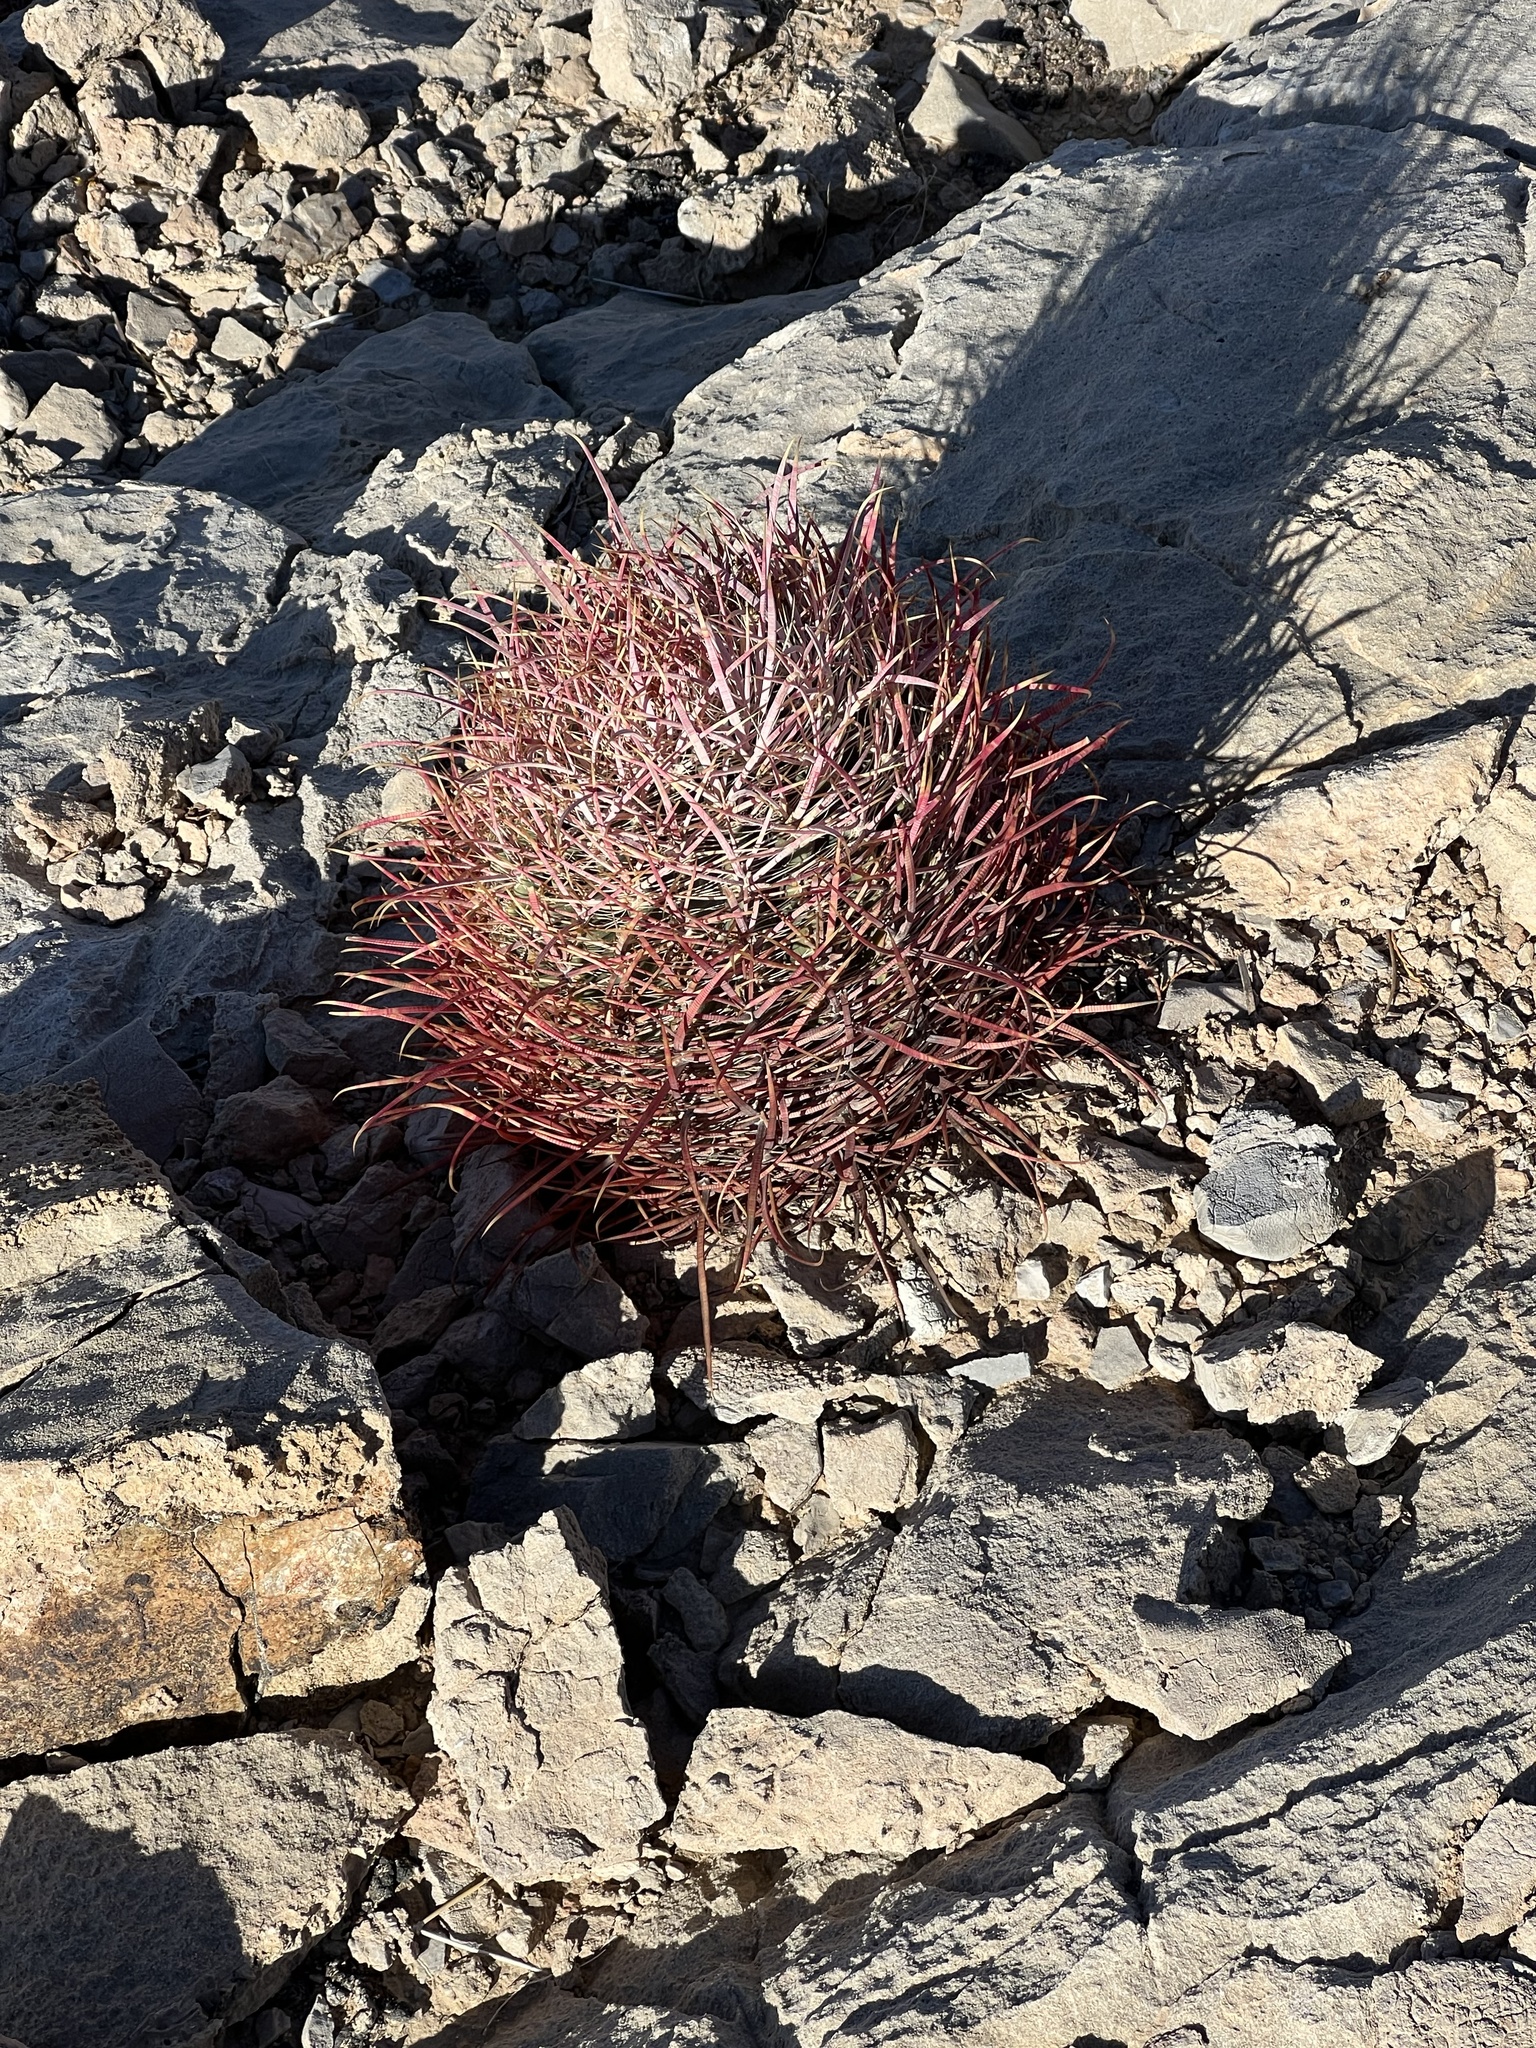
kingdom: Plantae
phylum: Tracheophyta
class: Magnoliopsida
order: Caryophyllales
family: Cactaceae
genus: Ferocactus
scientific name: Ferocactus cylindraceus
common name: California barrel cactus
